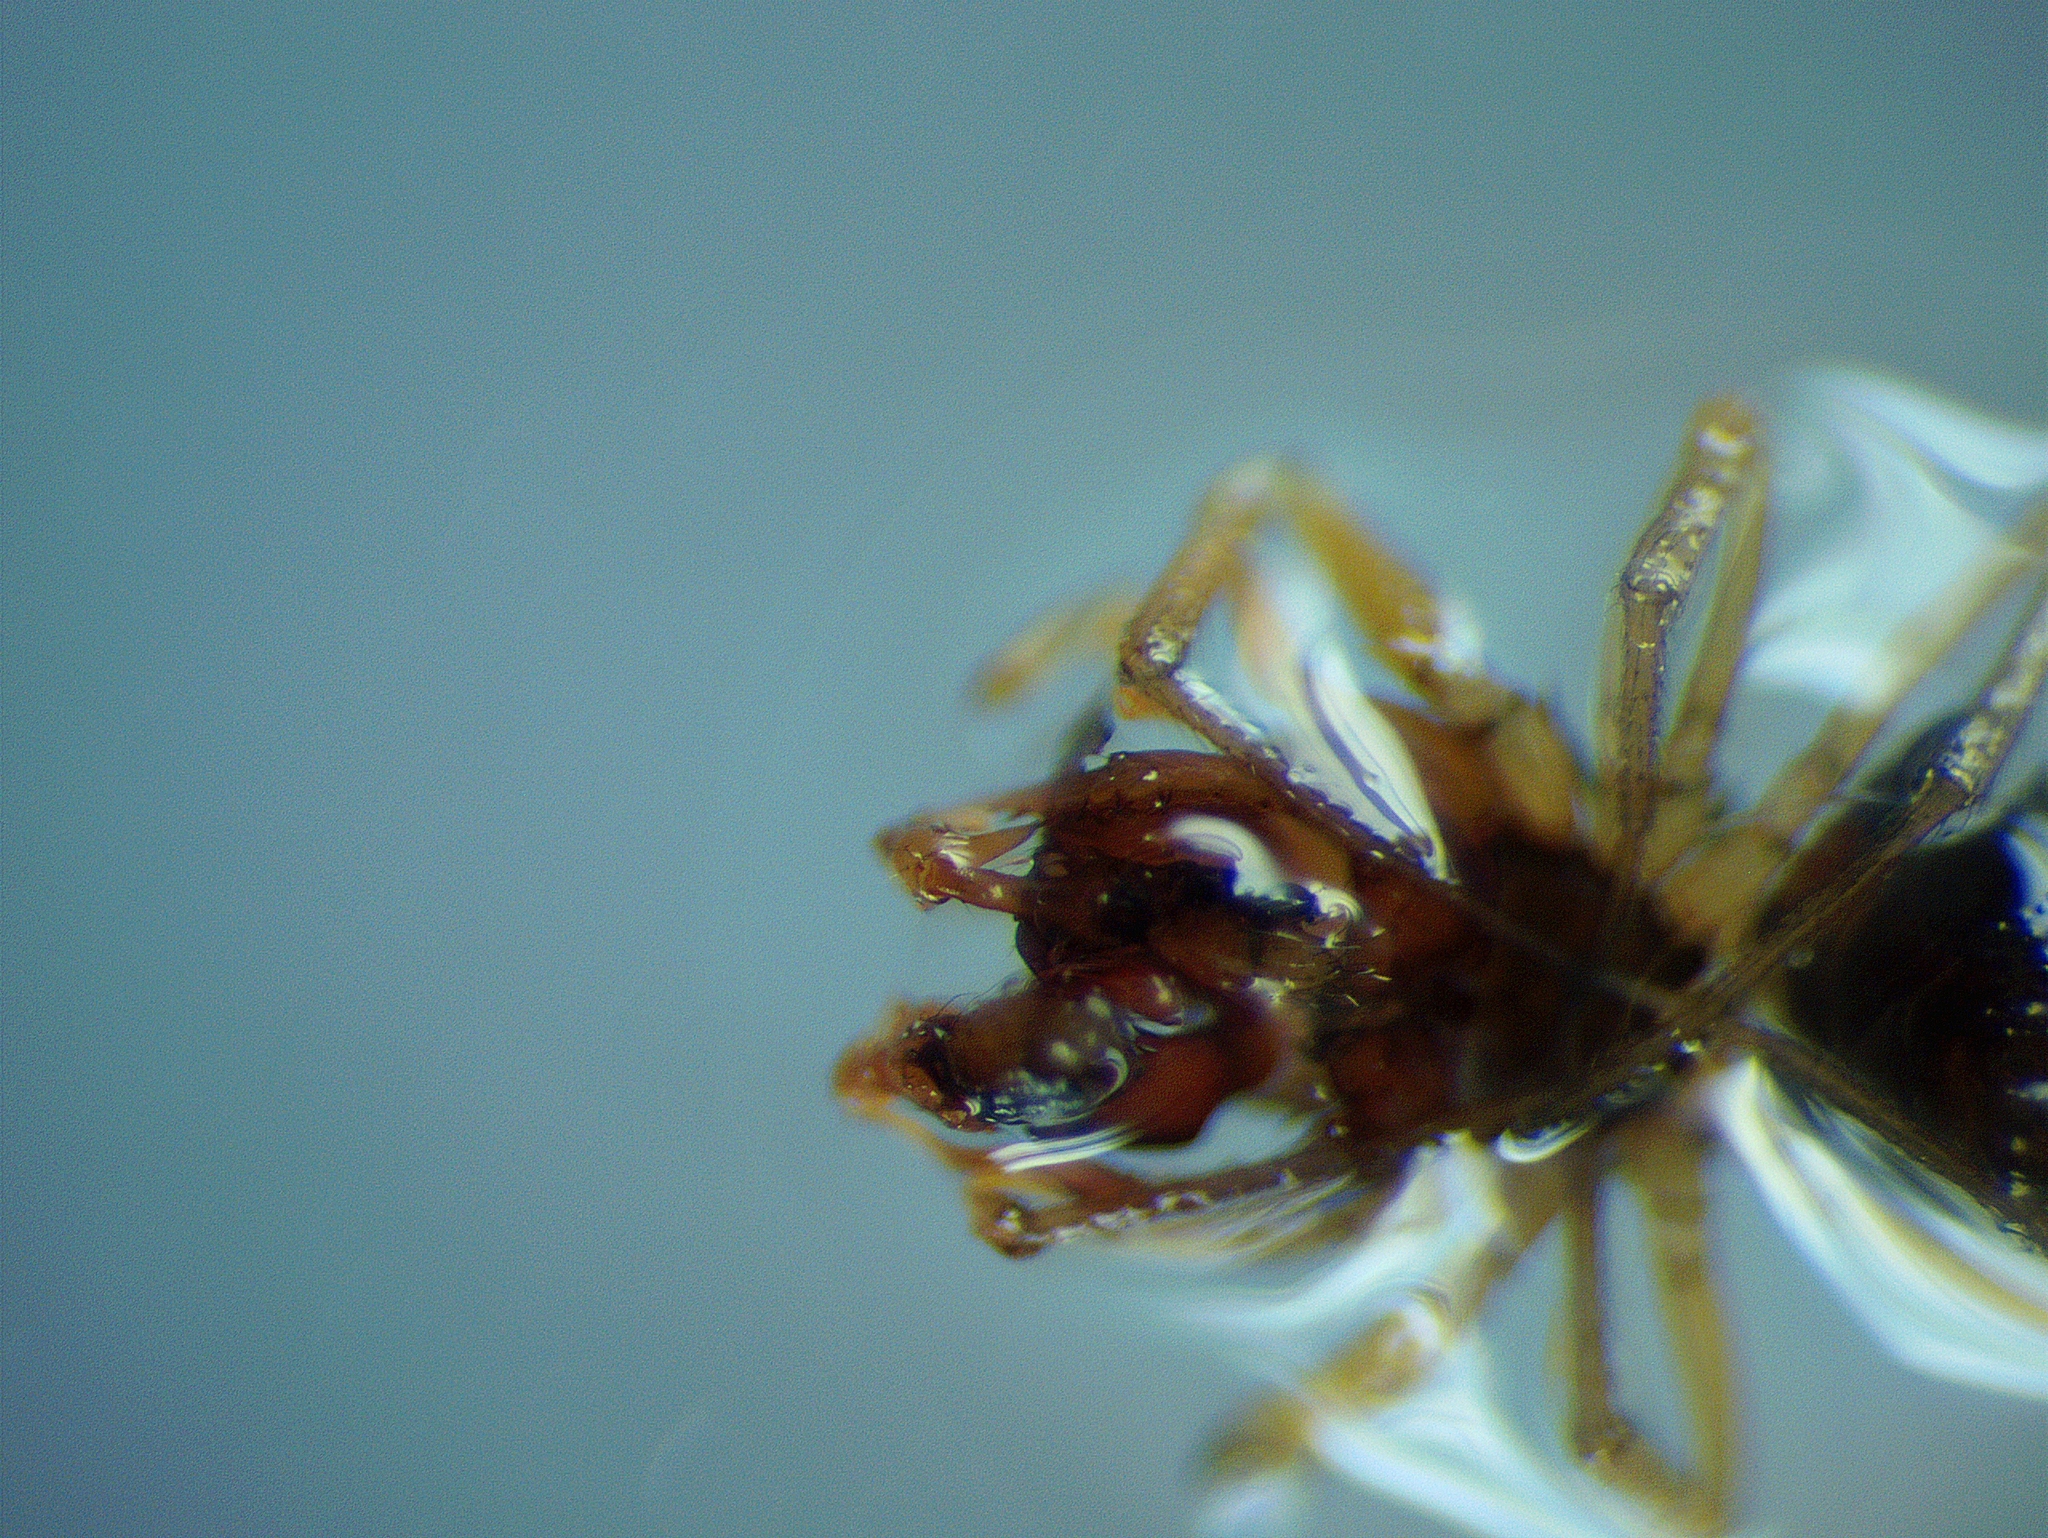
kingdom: Animalia
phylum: Arthropoda
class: Arachnida
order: Araneae
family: Linyphiidae
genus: Erigone
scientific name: Erigone dentosa
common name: Sheet-web spiders
